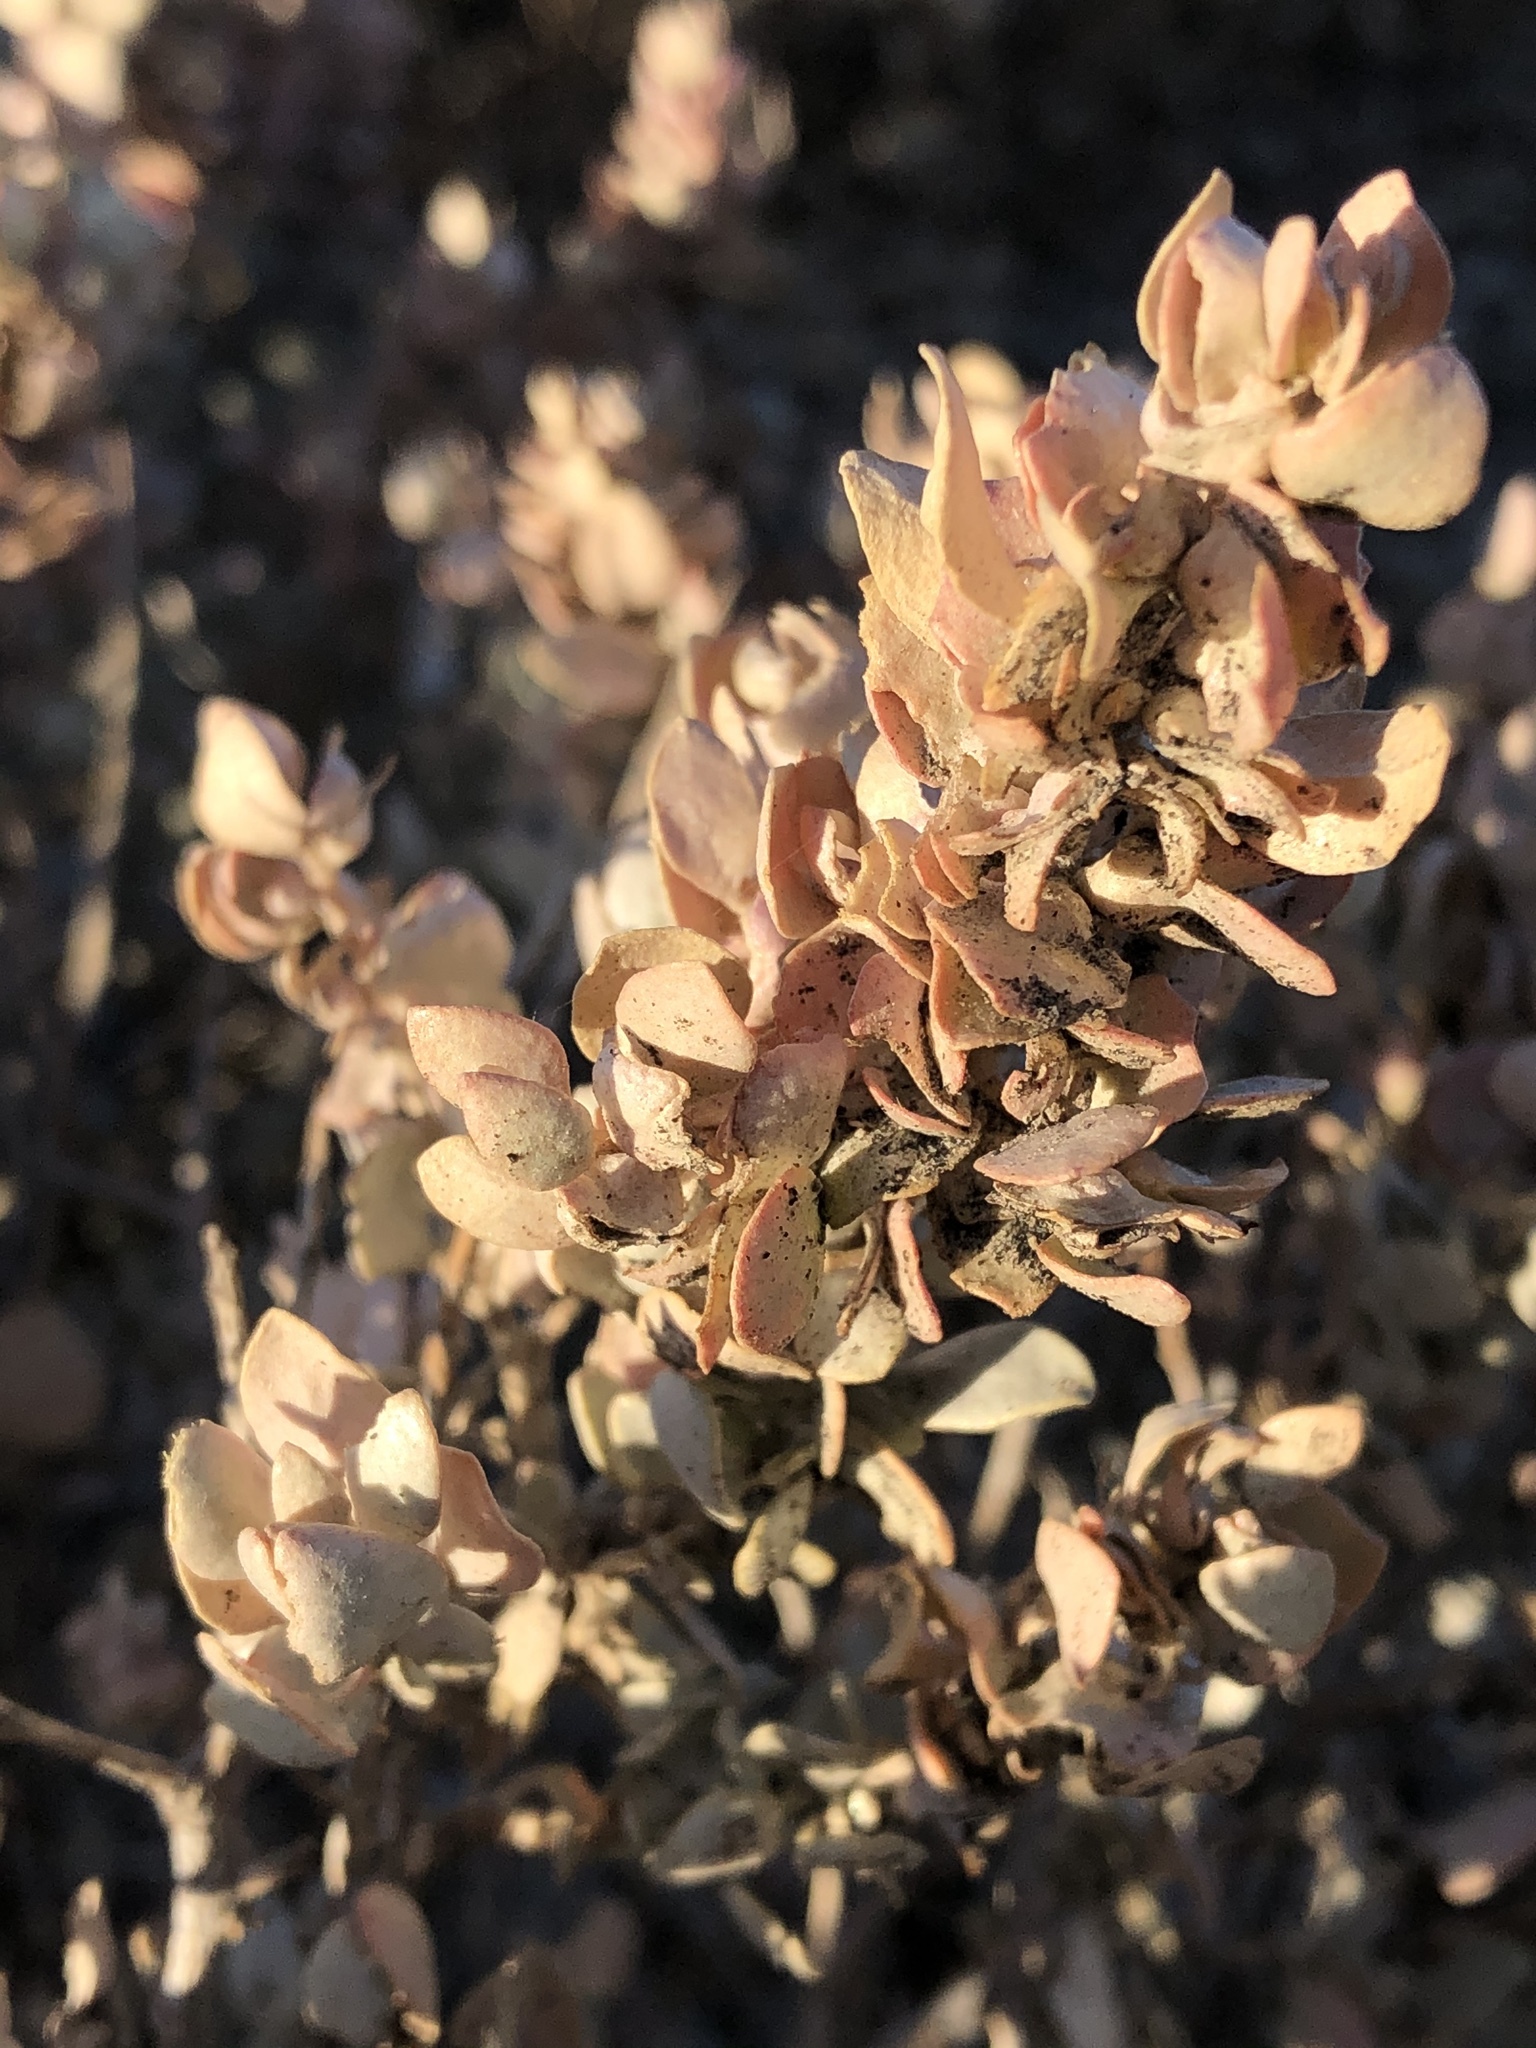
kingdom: Plantae
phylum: Tracheophyta
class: Magnoliopsida
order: Caryophyllales
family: Amaranthaceae
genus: Atriplex
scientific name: Atriplex confertifolia
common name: Shadscale
